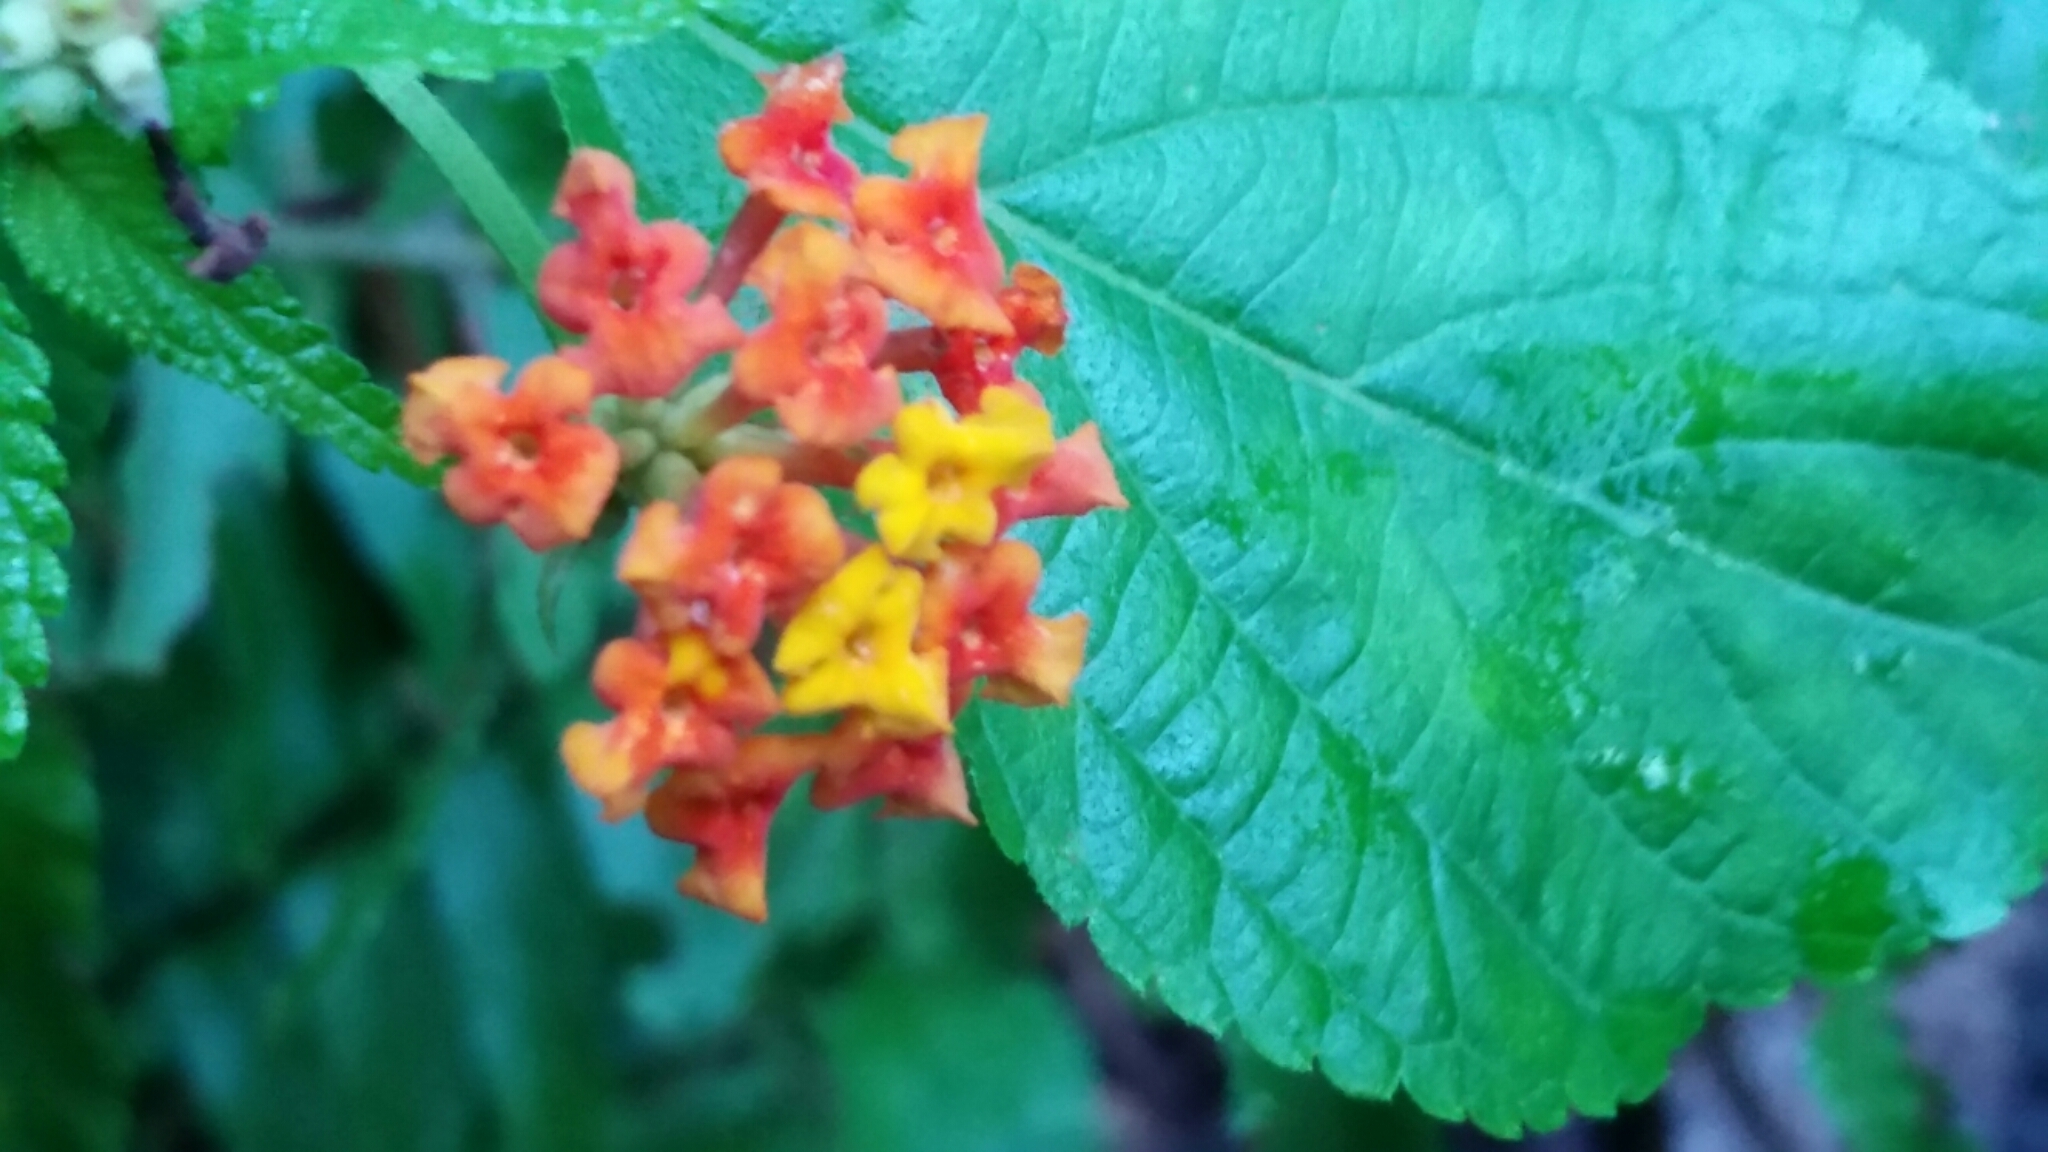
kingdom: Plantae
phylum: Tracheophyta
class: Magnoliopsida
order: Lamiales
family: Verbenaceae
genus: Lantana
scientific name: Lantana camara
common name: Lantana
